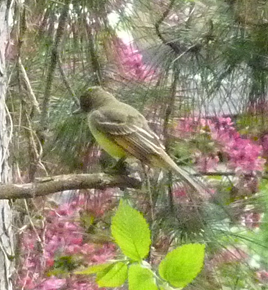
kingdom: Animalia
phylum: Chordata
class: Aves
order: Passeriformes
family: Tyrannidae
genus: Myiarchus
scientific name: Myiarchus crinitus
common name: Great crested flycatcher
